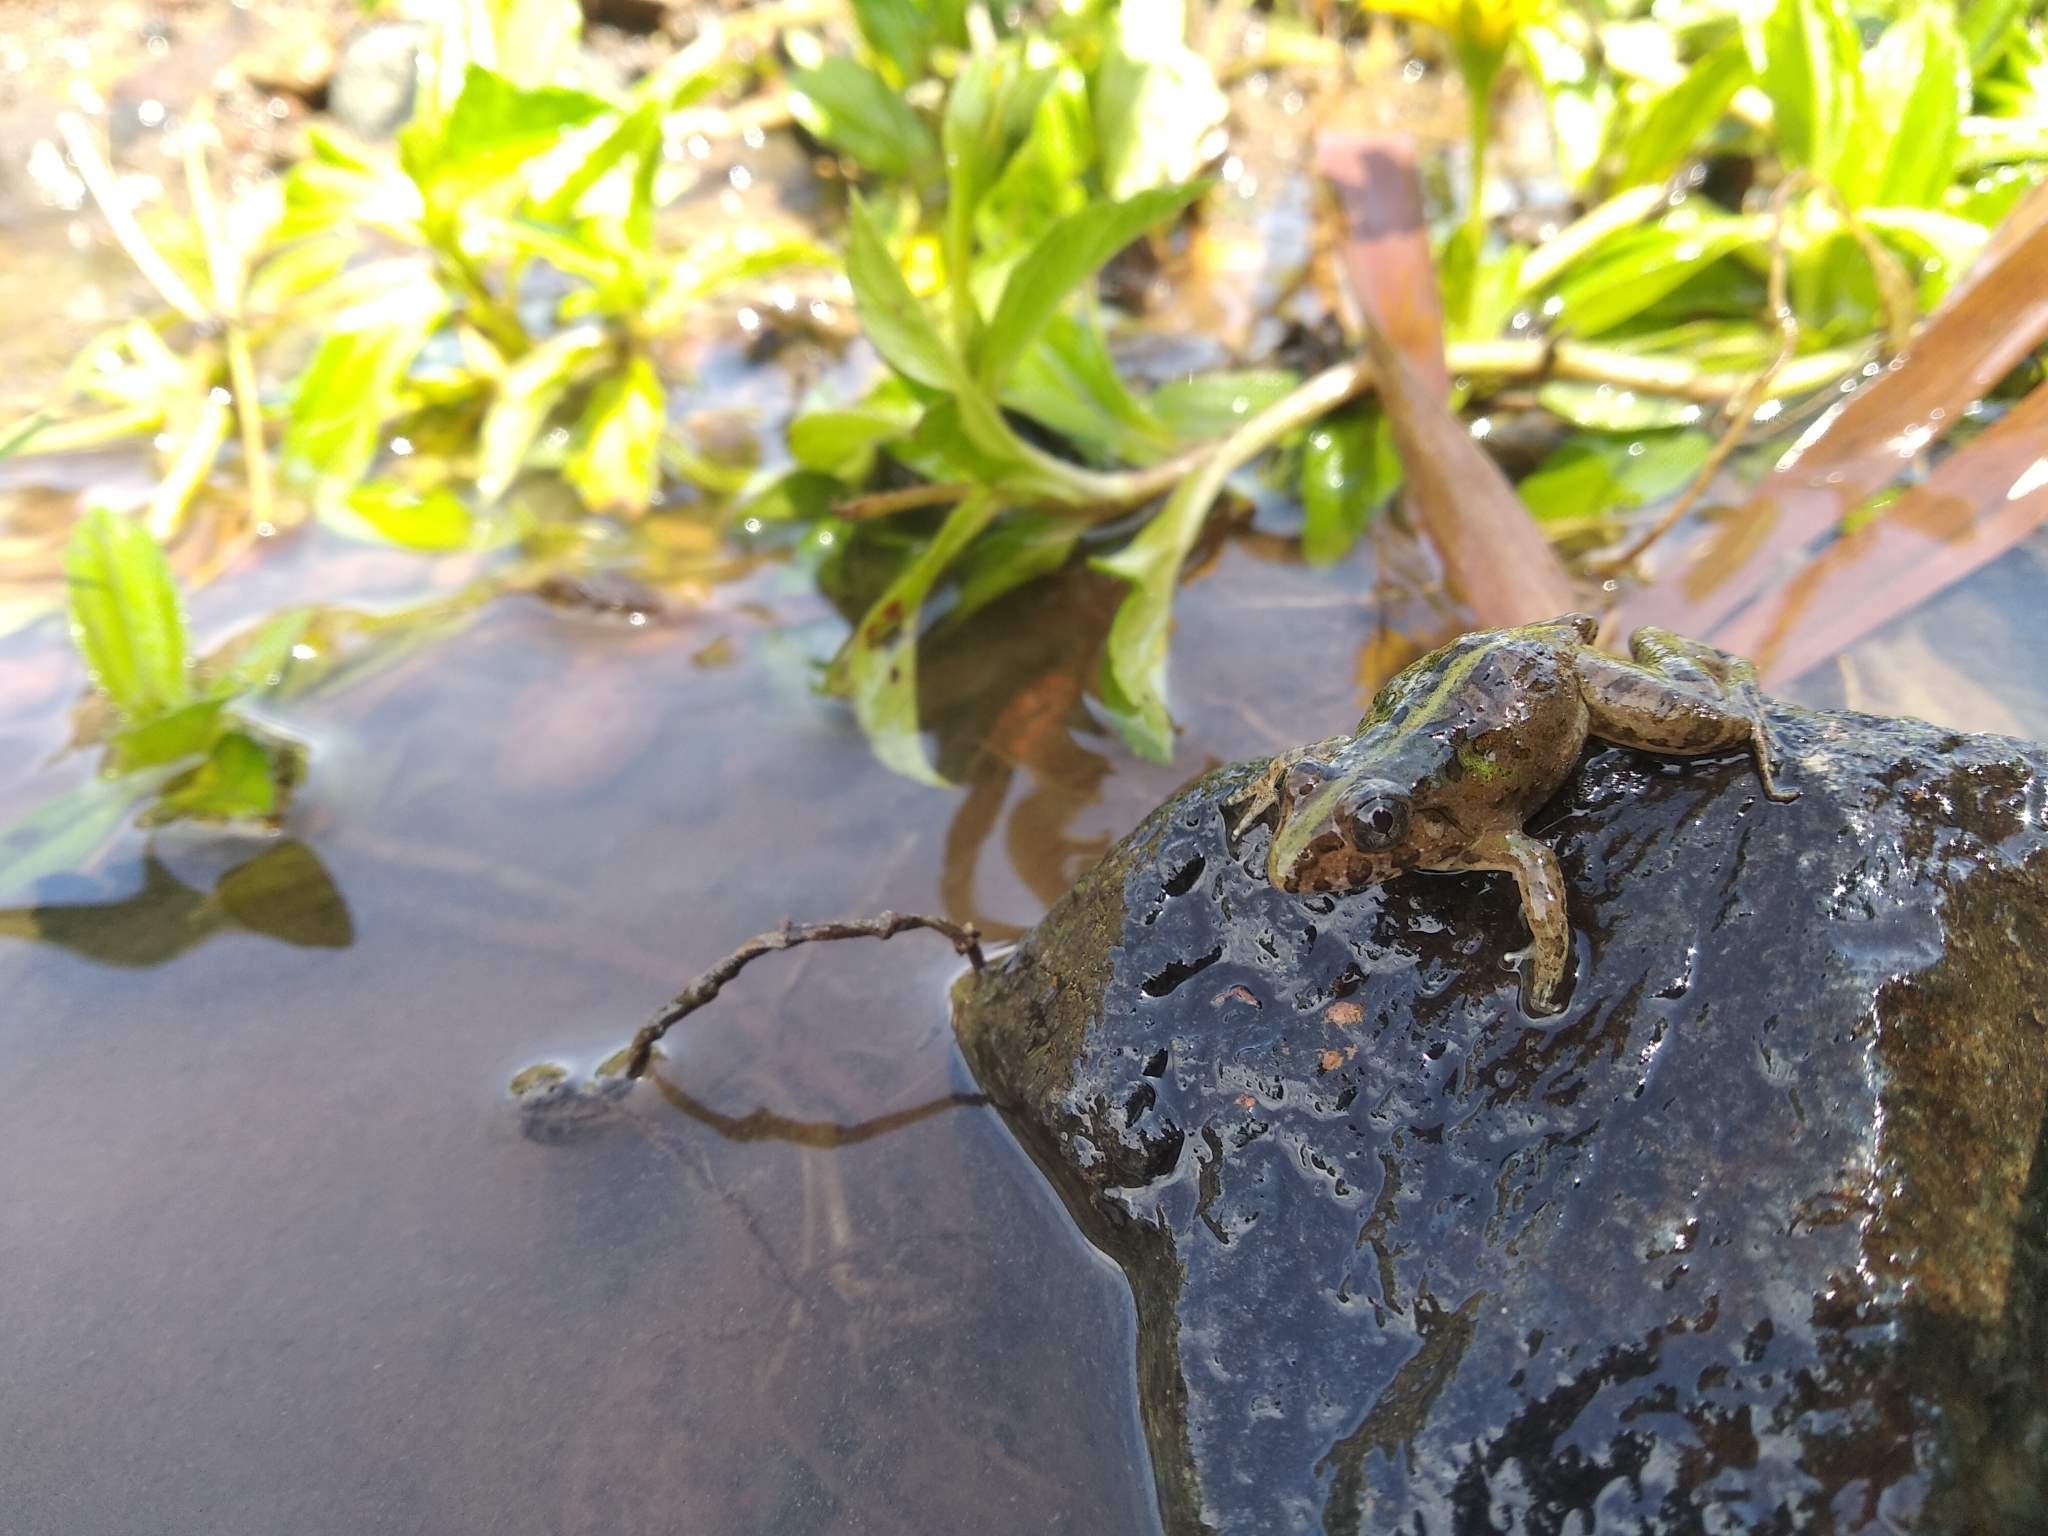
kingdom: Animalia
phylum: Chordata
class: Amphibia
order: Anura
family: Dicroglossidae
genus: Fejervarya
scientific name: Fejervarya limnocharis
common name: Asian grass frog/common pond frog/field frog/grass frog/indian rice frog
